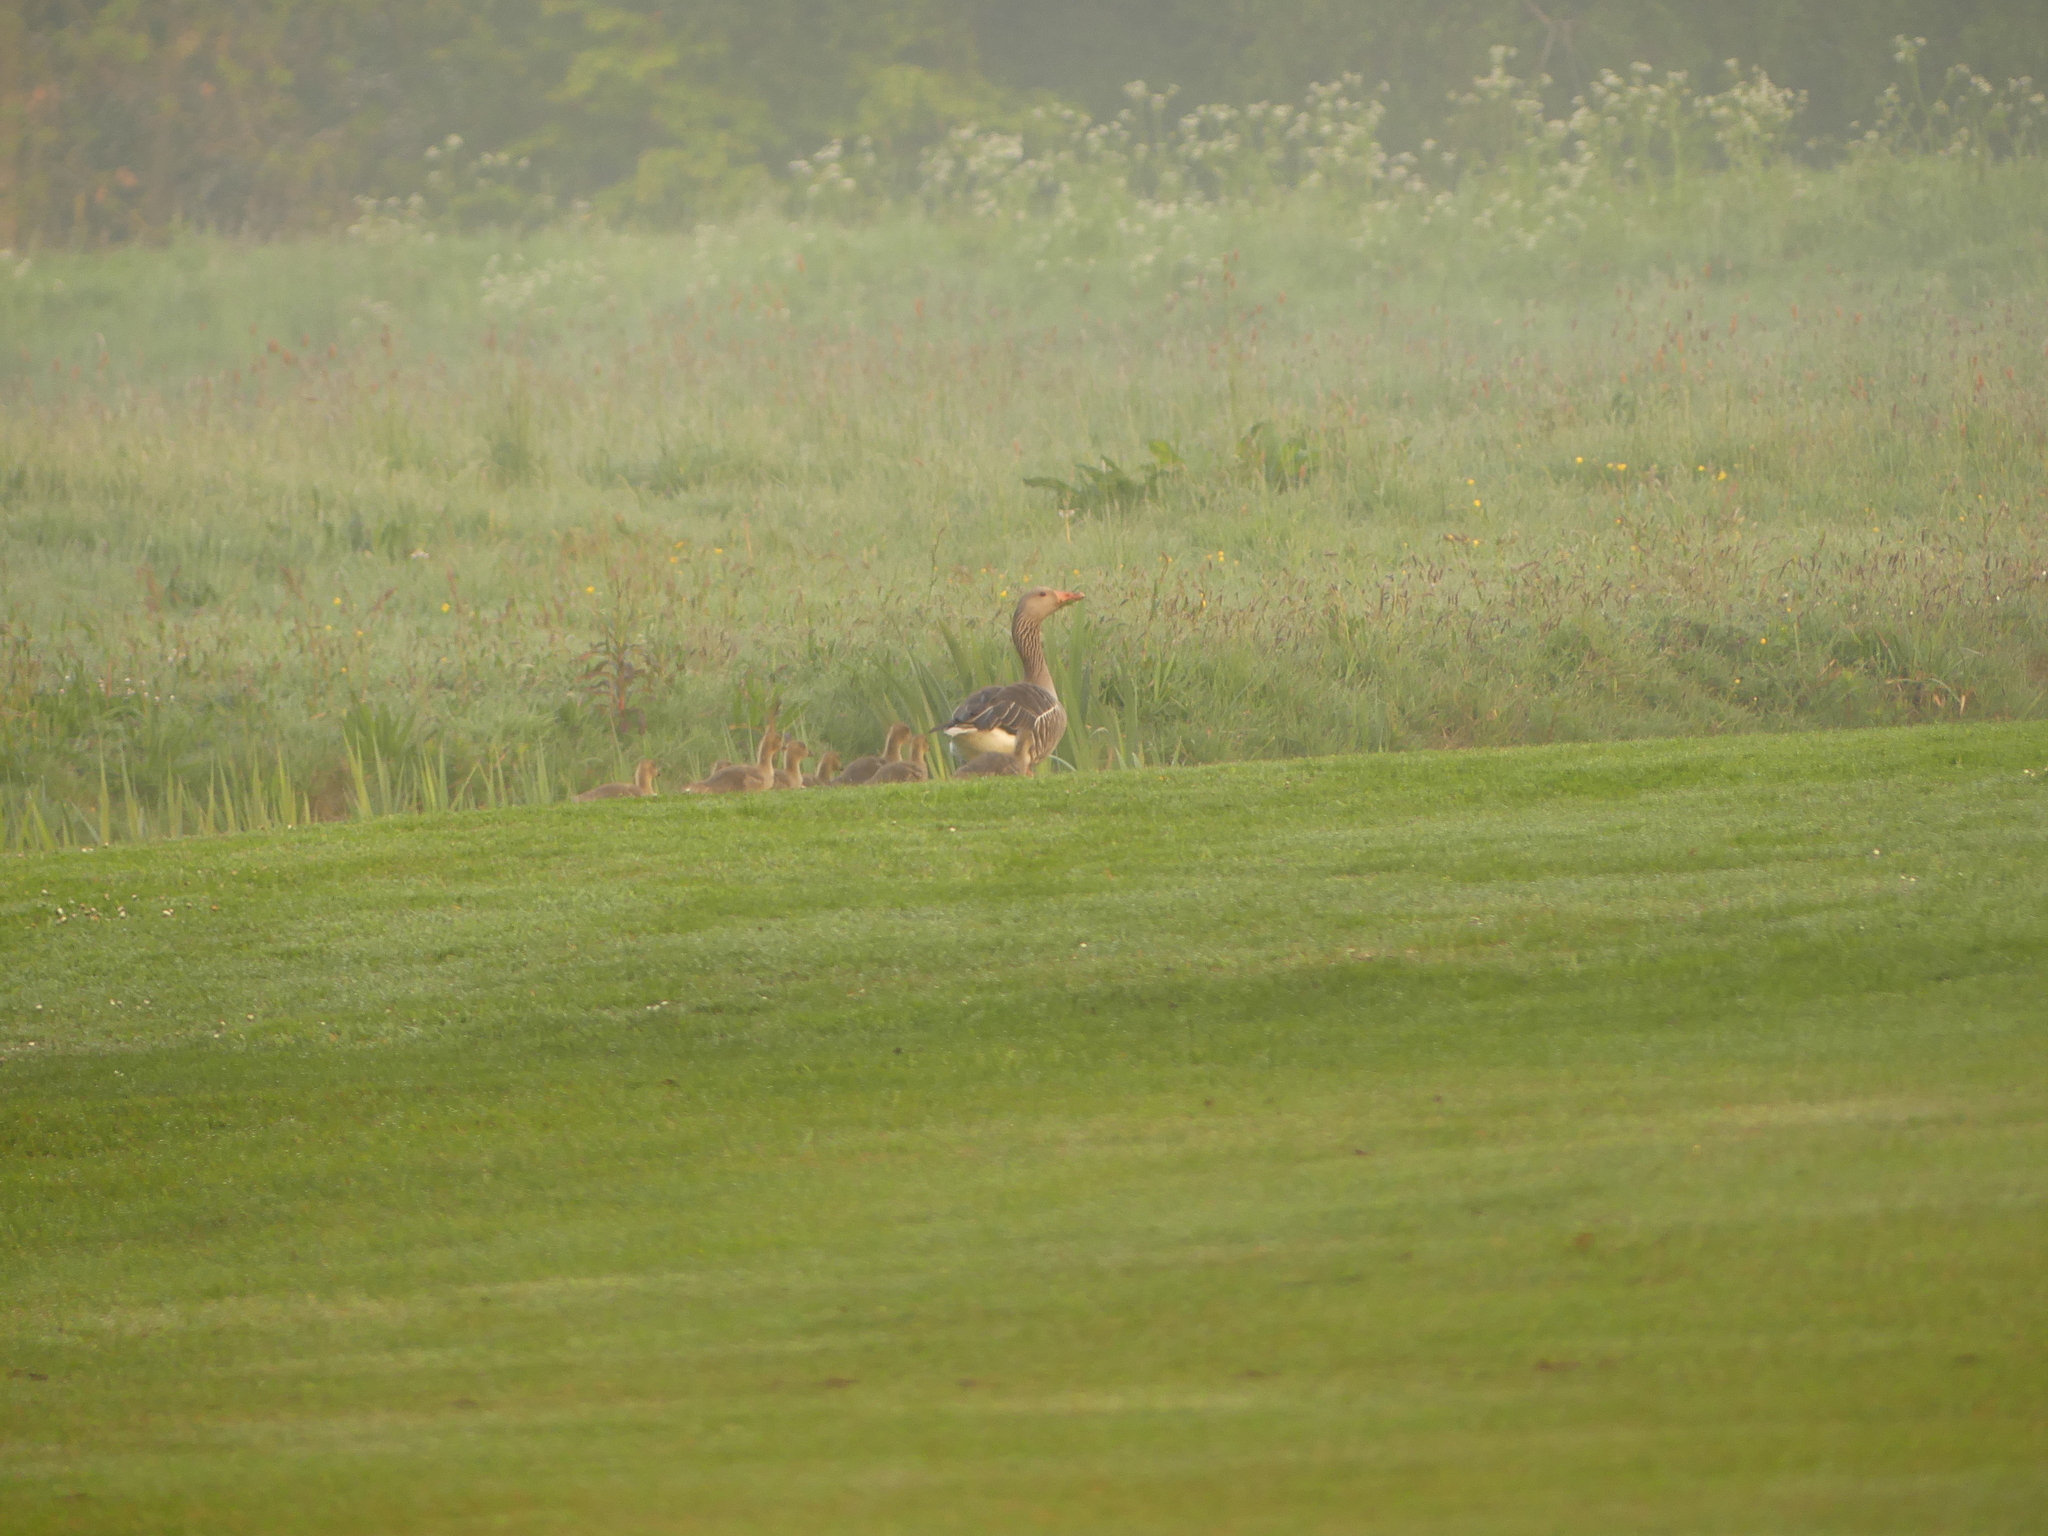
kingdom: Animalia
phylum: Chordata
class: Aves
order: Anseriformes
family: Anatidae
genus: Anser
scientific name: Anser anser
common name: Greylag goose
